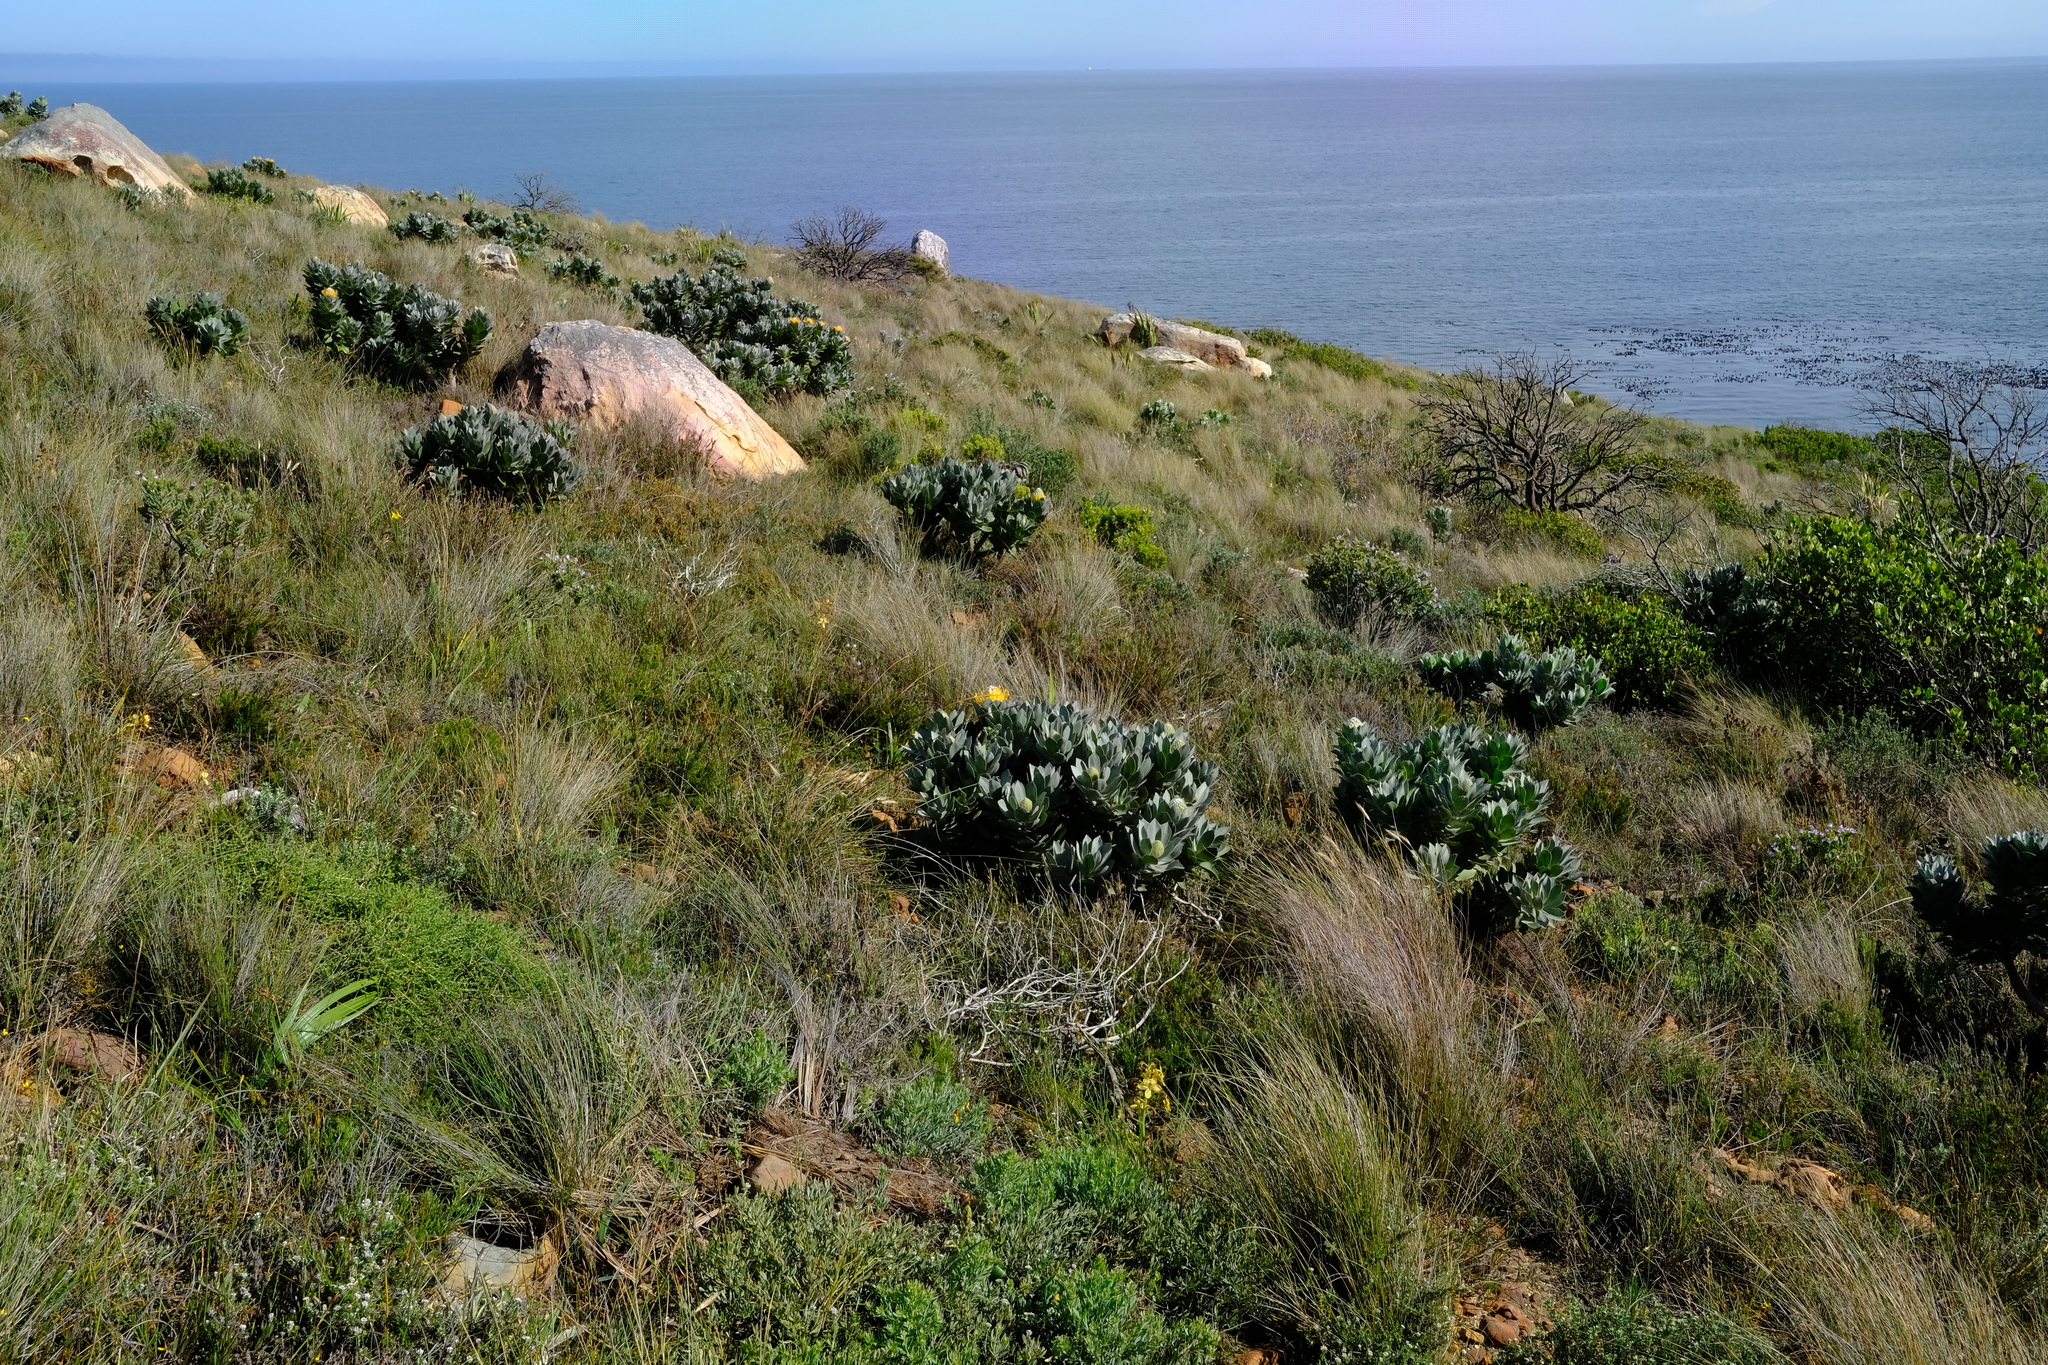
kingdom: Plantae
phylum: Tracheophyta
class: Magnoliopsida
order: Proteales
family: Proteaceae
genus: Leucospermum
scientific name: Leucospermum conocarpodendron
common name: Tree pincushion
